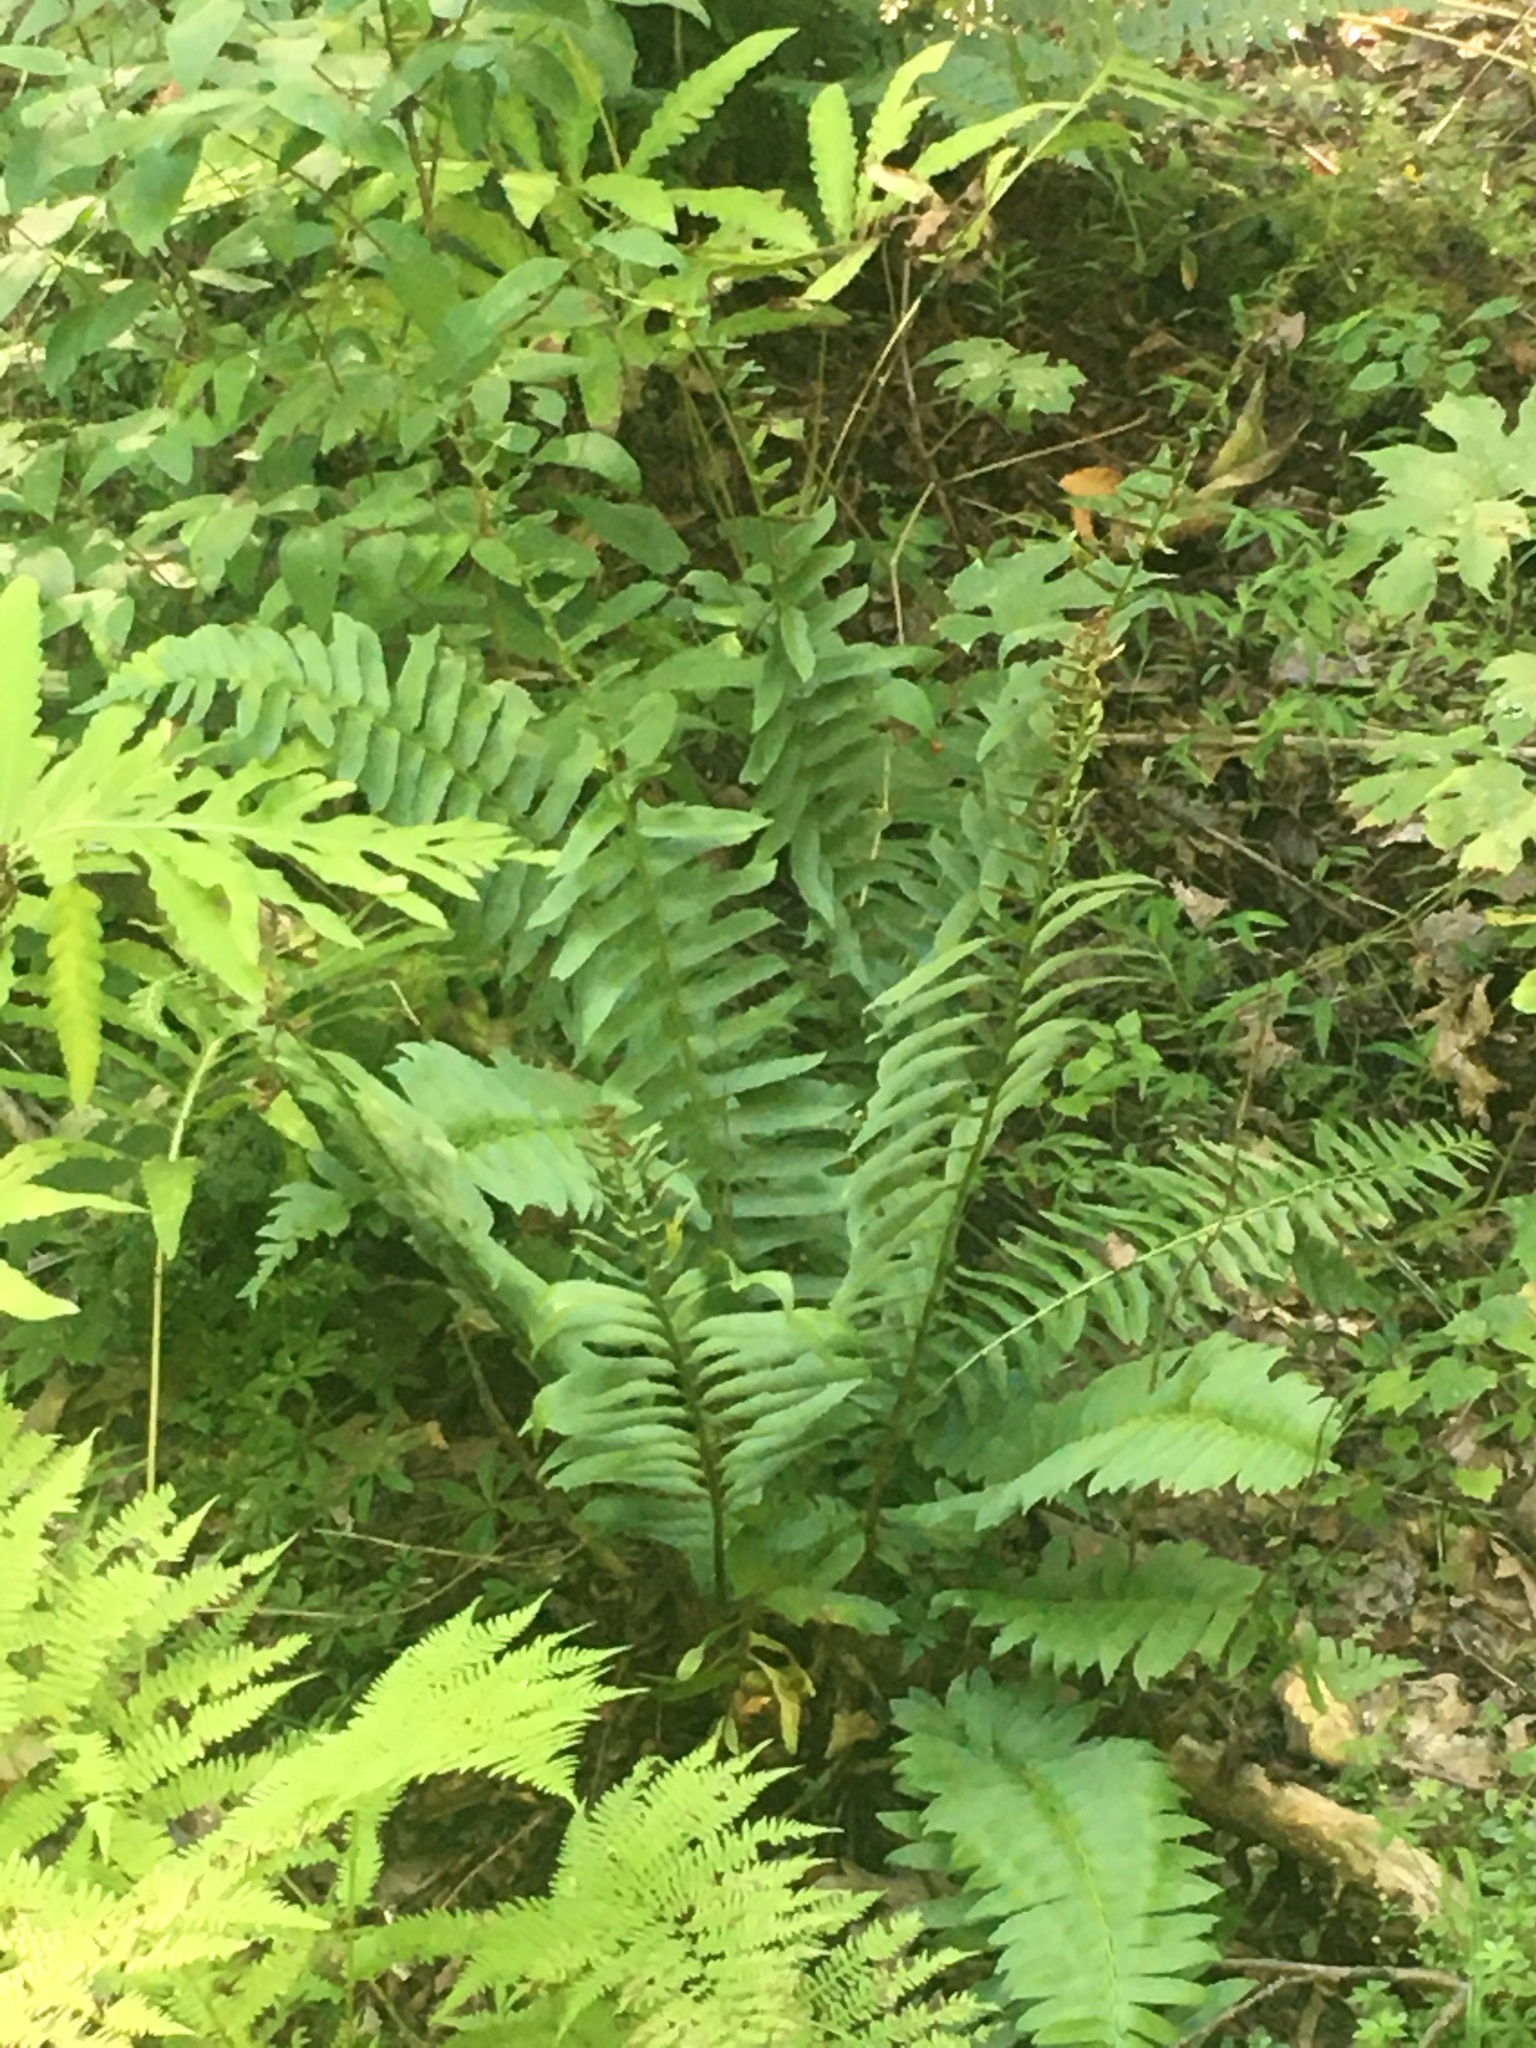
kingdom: Plantae
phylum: Tracheophyta
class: Polypodiopsida
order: Polypodiales
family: Dryopteridaceae
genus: Polystichum
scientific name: Polystichum acrostichoides
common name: Christmas fern
